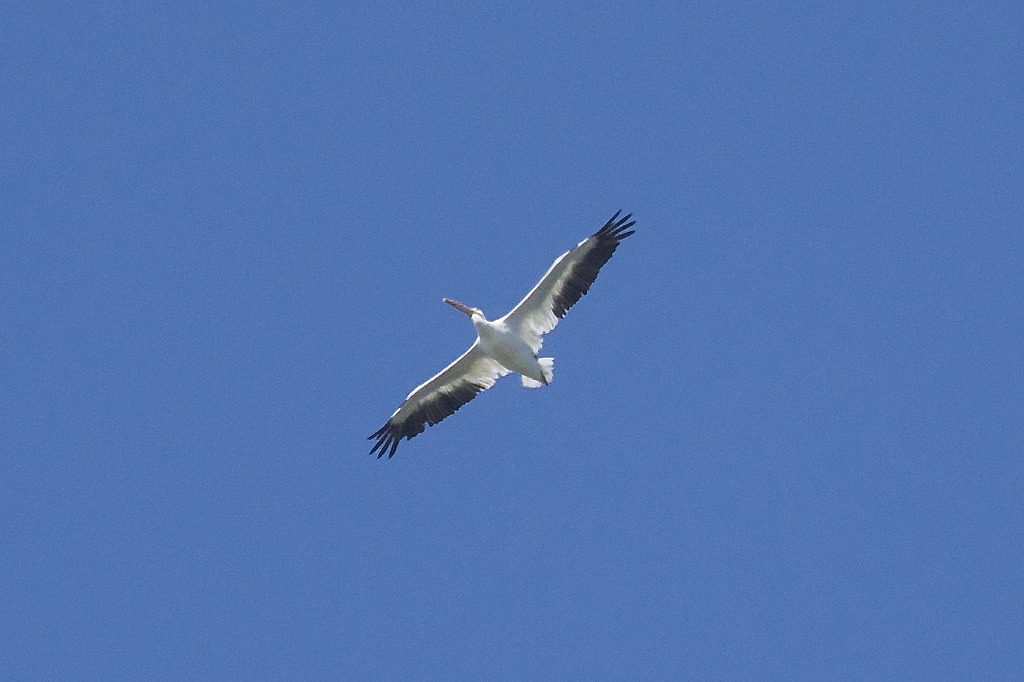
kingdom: Animalia
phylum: Chordata
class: Aves
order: Pelecaniformes
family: Pelecanidae
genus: Pelecanus
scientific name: Pelecanus erythrorhynchos
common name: American white pelican
